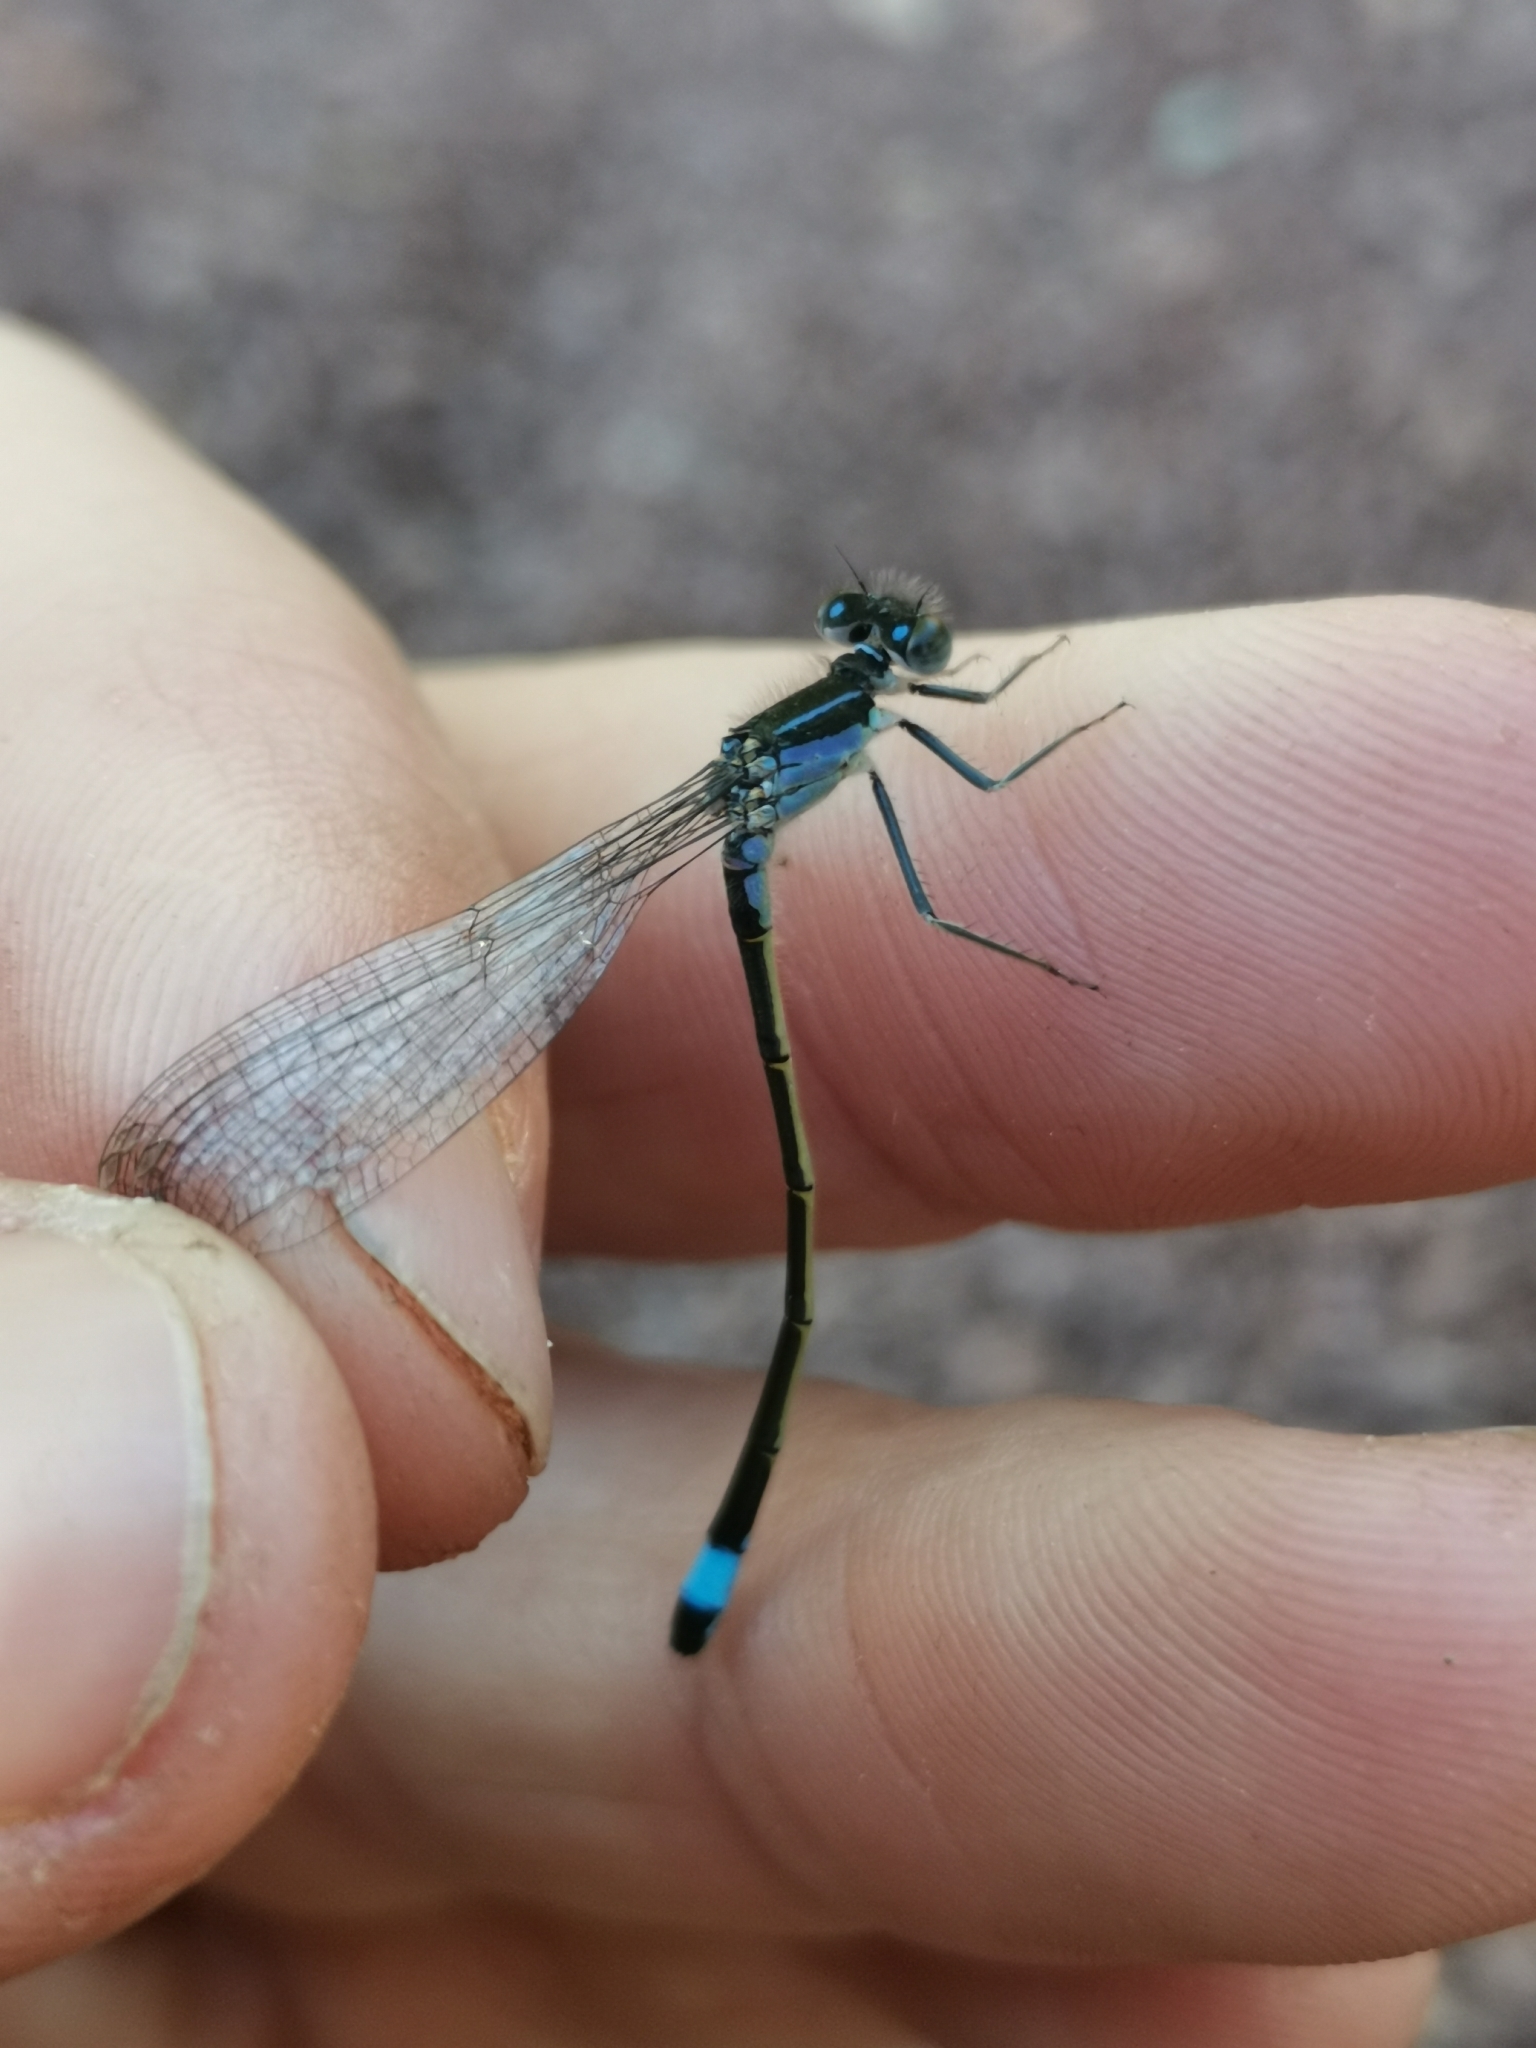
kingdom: Animalia
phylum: Arthropoda
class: Insecta
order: Odonata
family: Coenagrionidae
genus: Ischnura
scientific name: Ischnura elegans
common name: Blue-tailed damselfly
